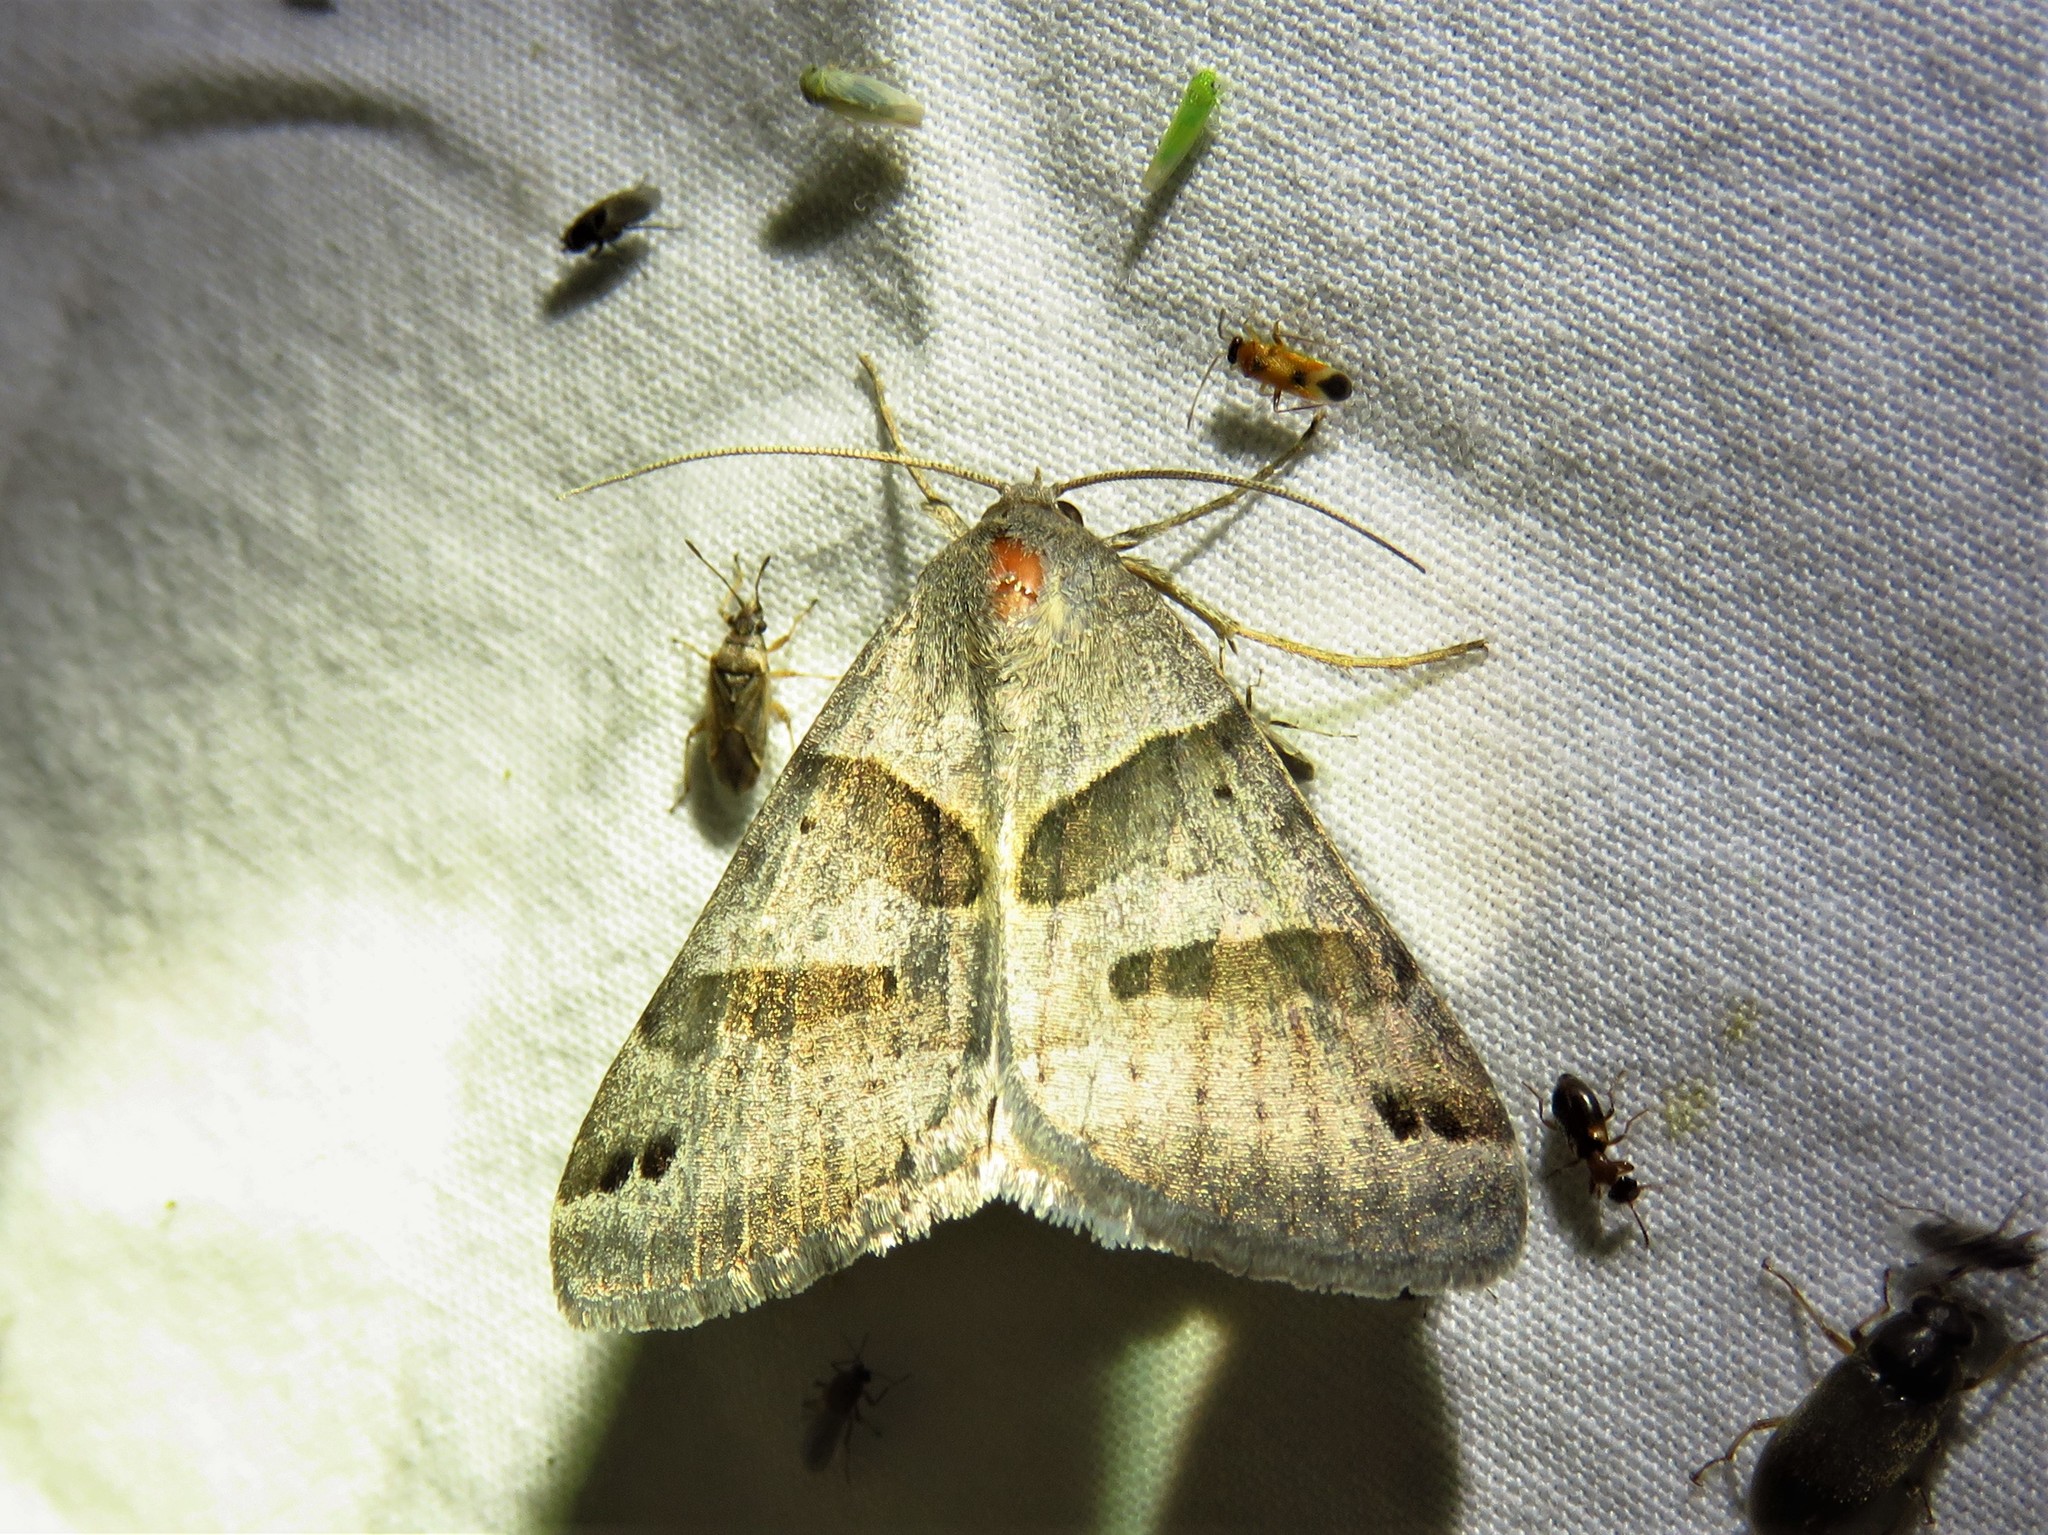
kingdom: Animalia
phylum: Arthropoda
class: Insecta
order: Lepidoptera
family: Erebidae
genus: Caenurgina
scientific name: Caenurgina erechtea
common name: Forage looper moth
